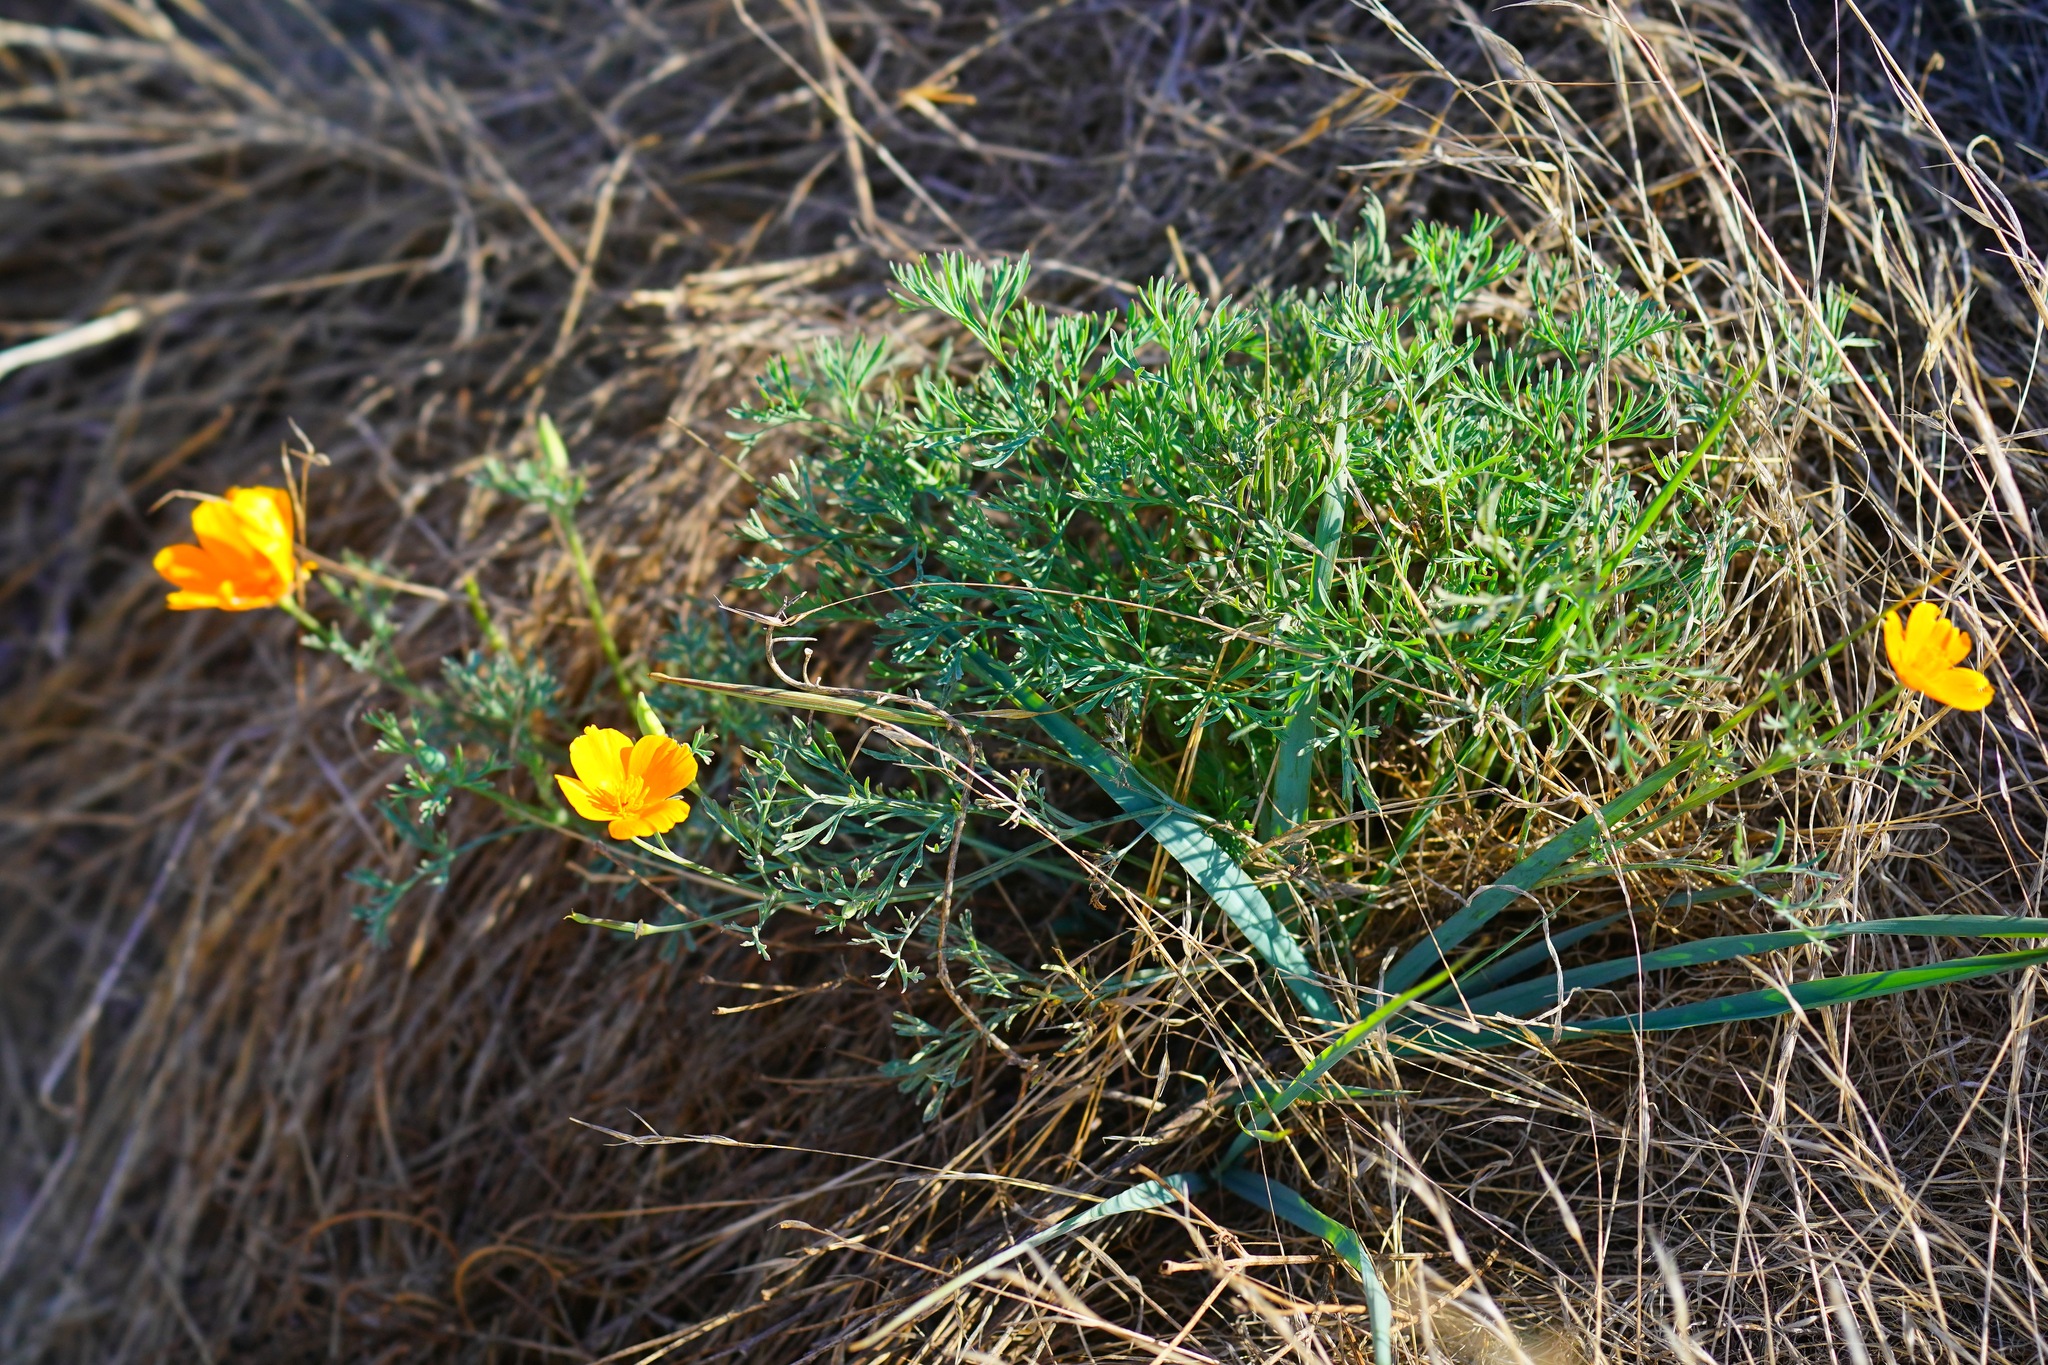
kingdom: Plantae
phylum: Tracheophyta
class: Magnoliopsida
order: Ranunculales
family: Papaveraceae
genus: Eschscholzia
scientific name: Eschscholzia californica
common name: California poppy
